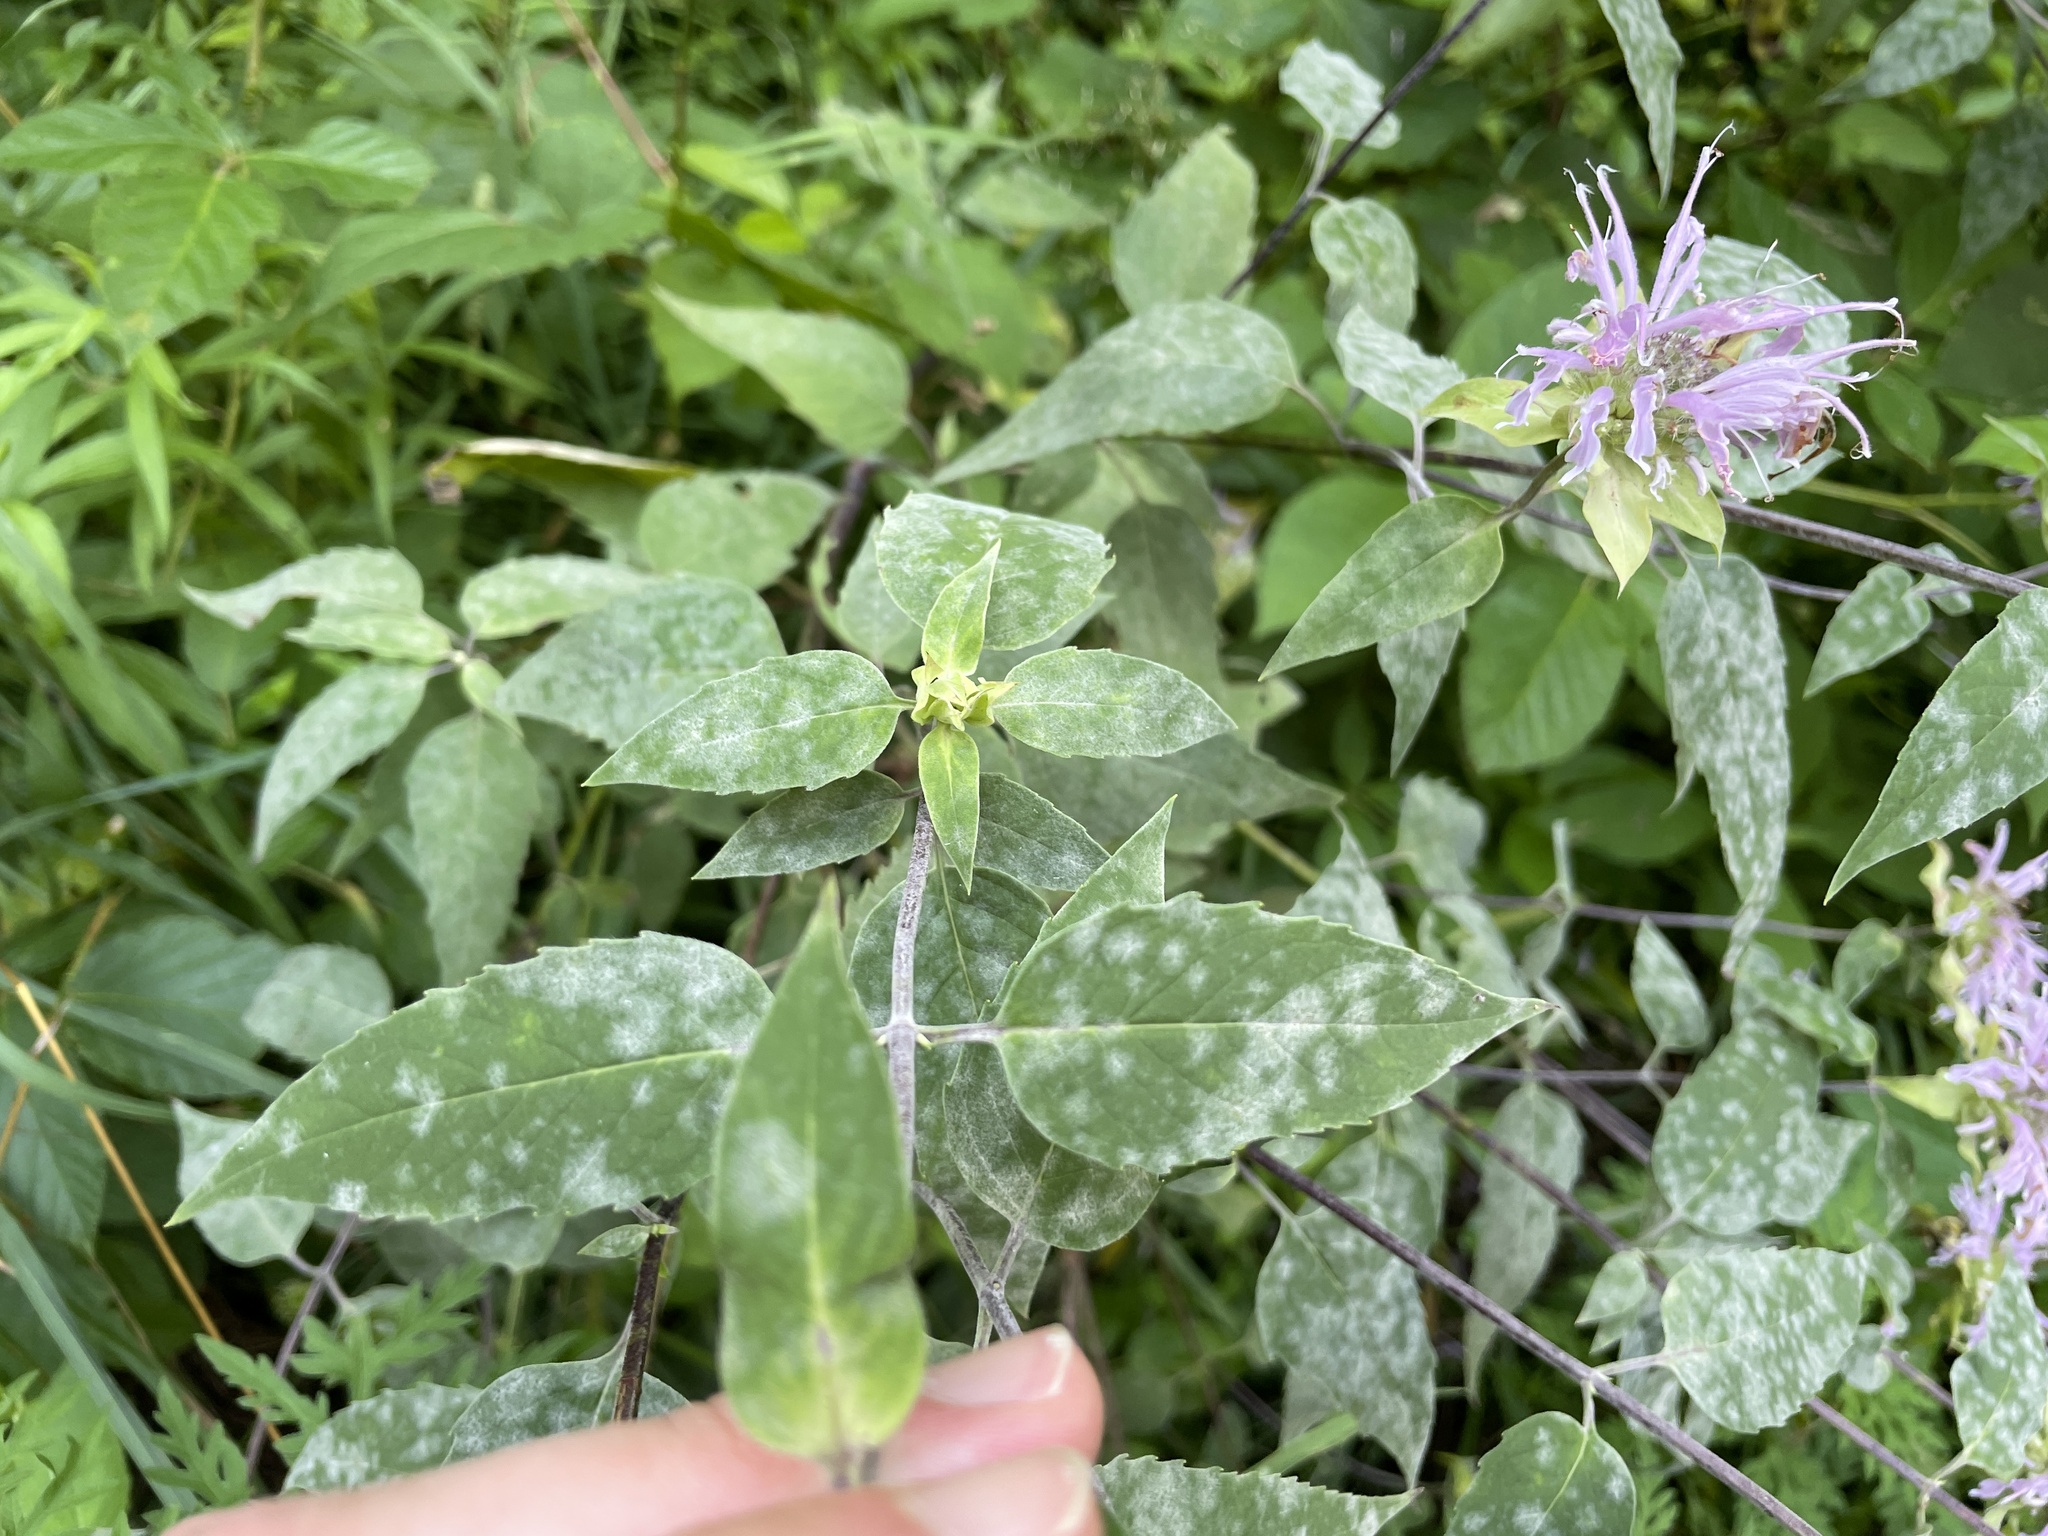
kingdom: Plantae
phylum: Tracheophyta
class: Magnoliopsida
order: Lamiales
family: Lamiaceae
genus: Monarda
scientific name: Monarda fistulosa
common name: Purple beebalm
